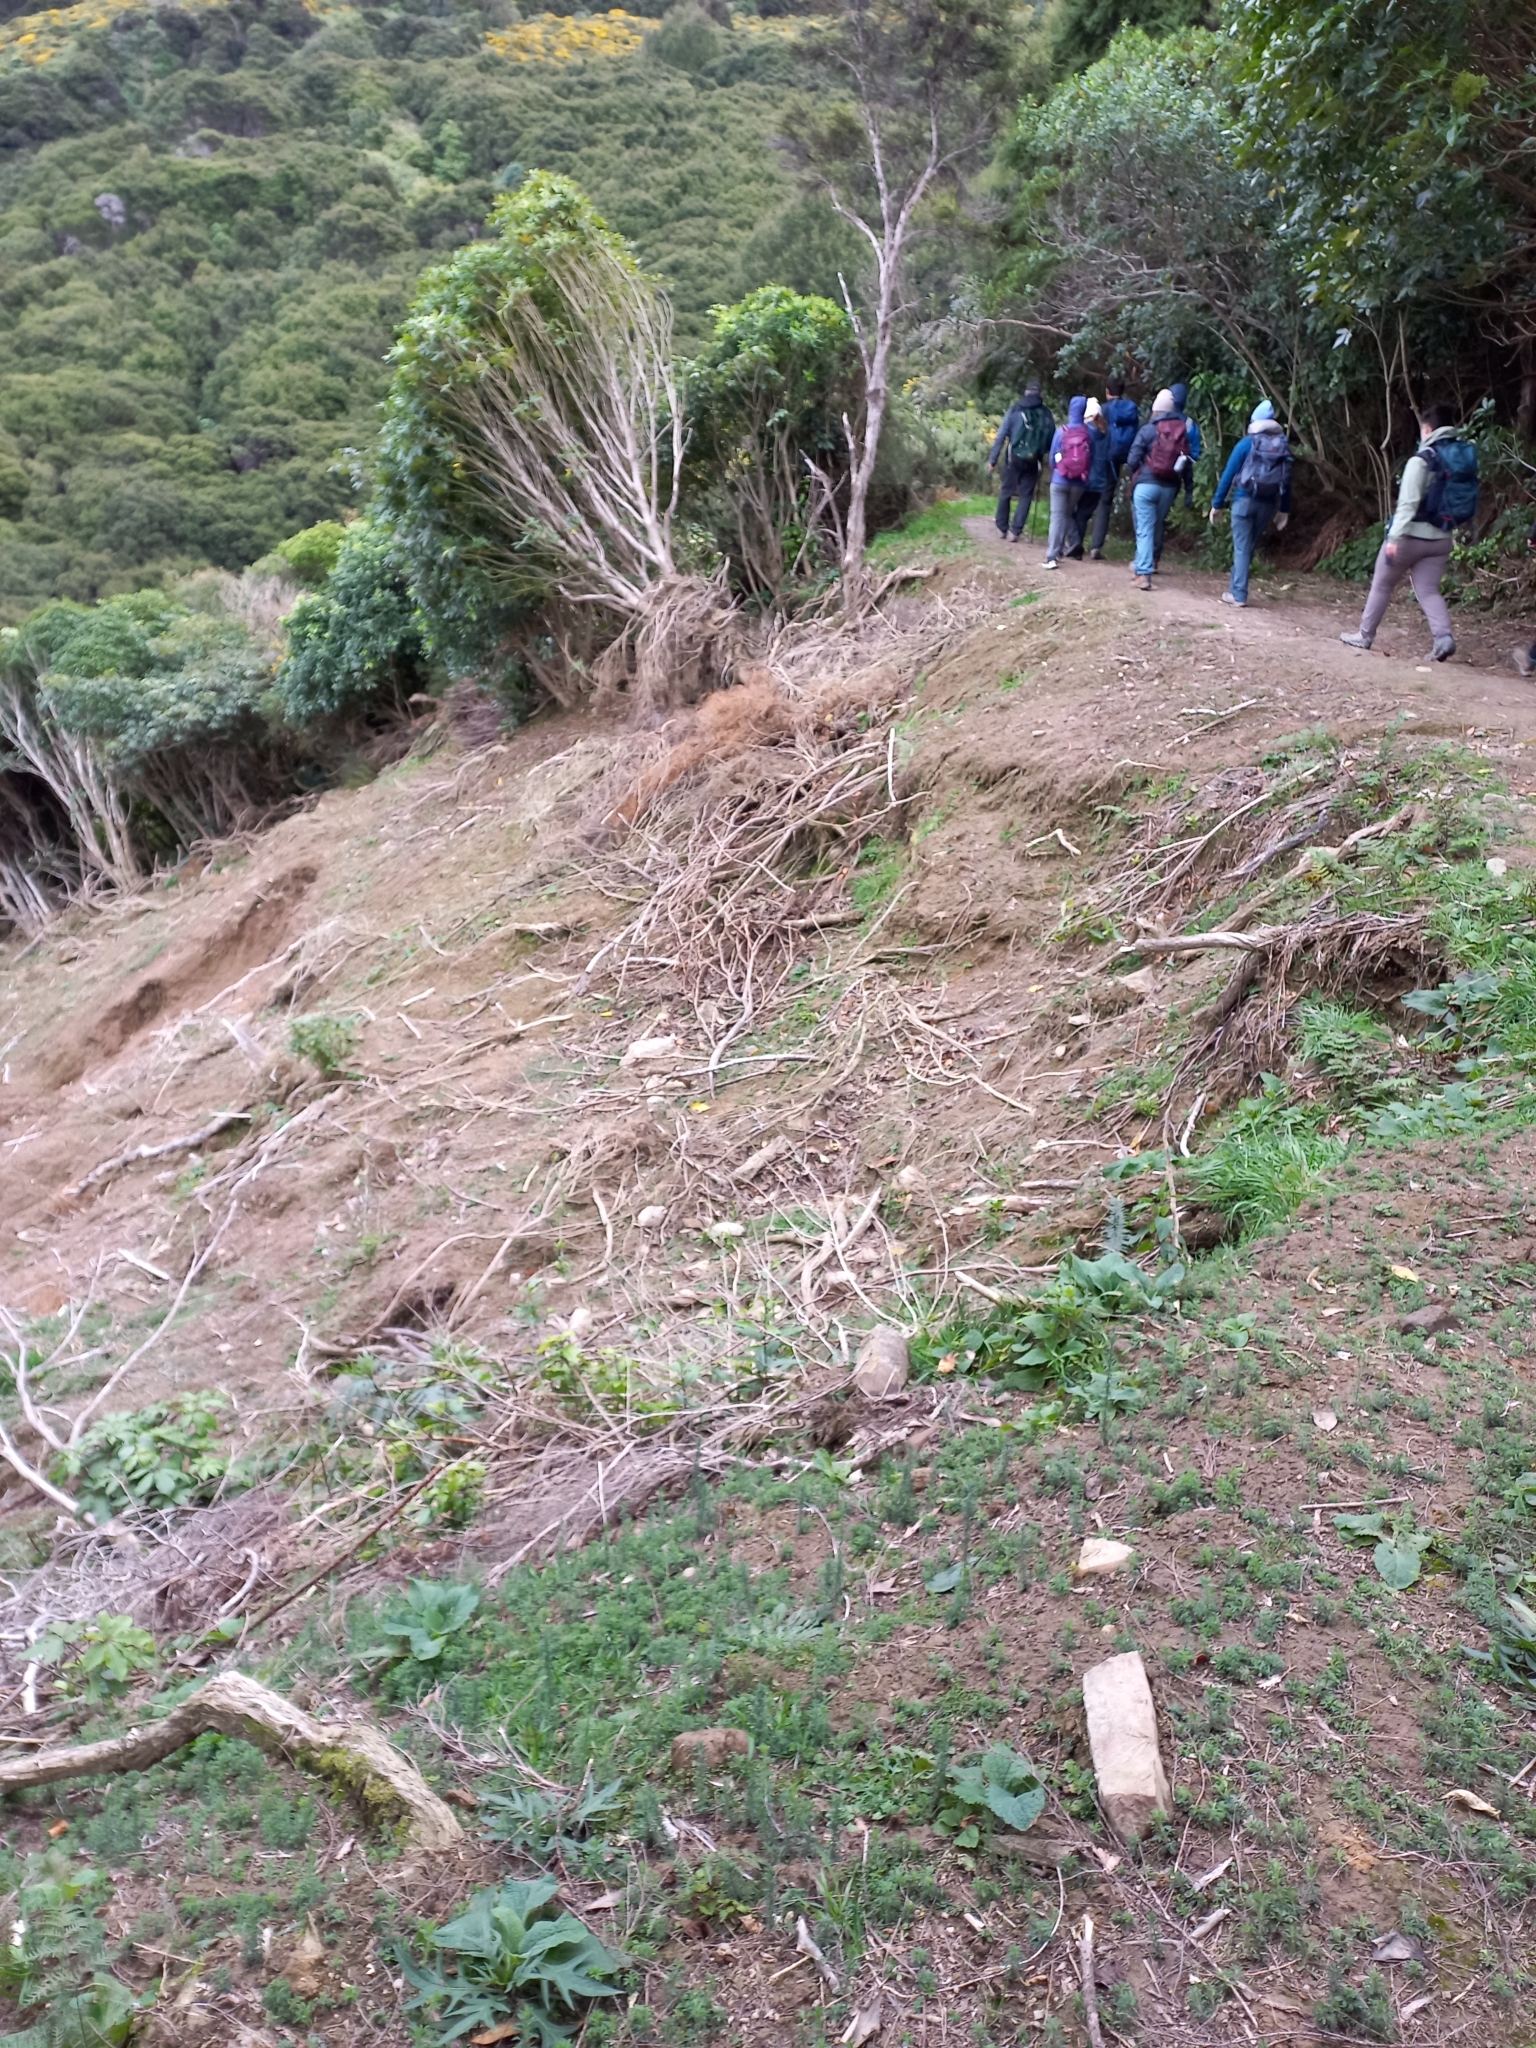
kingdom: Plantae
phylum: Tracheophyta
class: Magnoliopsida
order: Fabales
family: Fabaceae
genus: Ulex
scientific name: Ulex europaeus
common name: Common gorse
